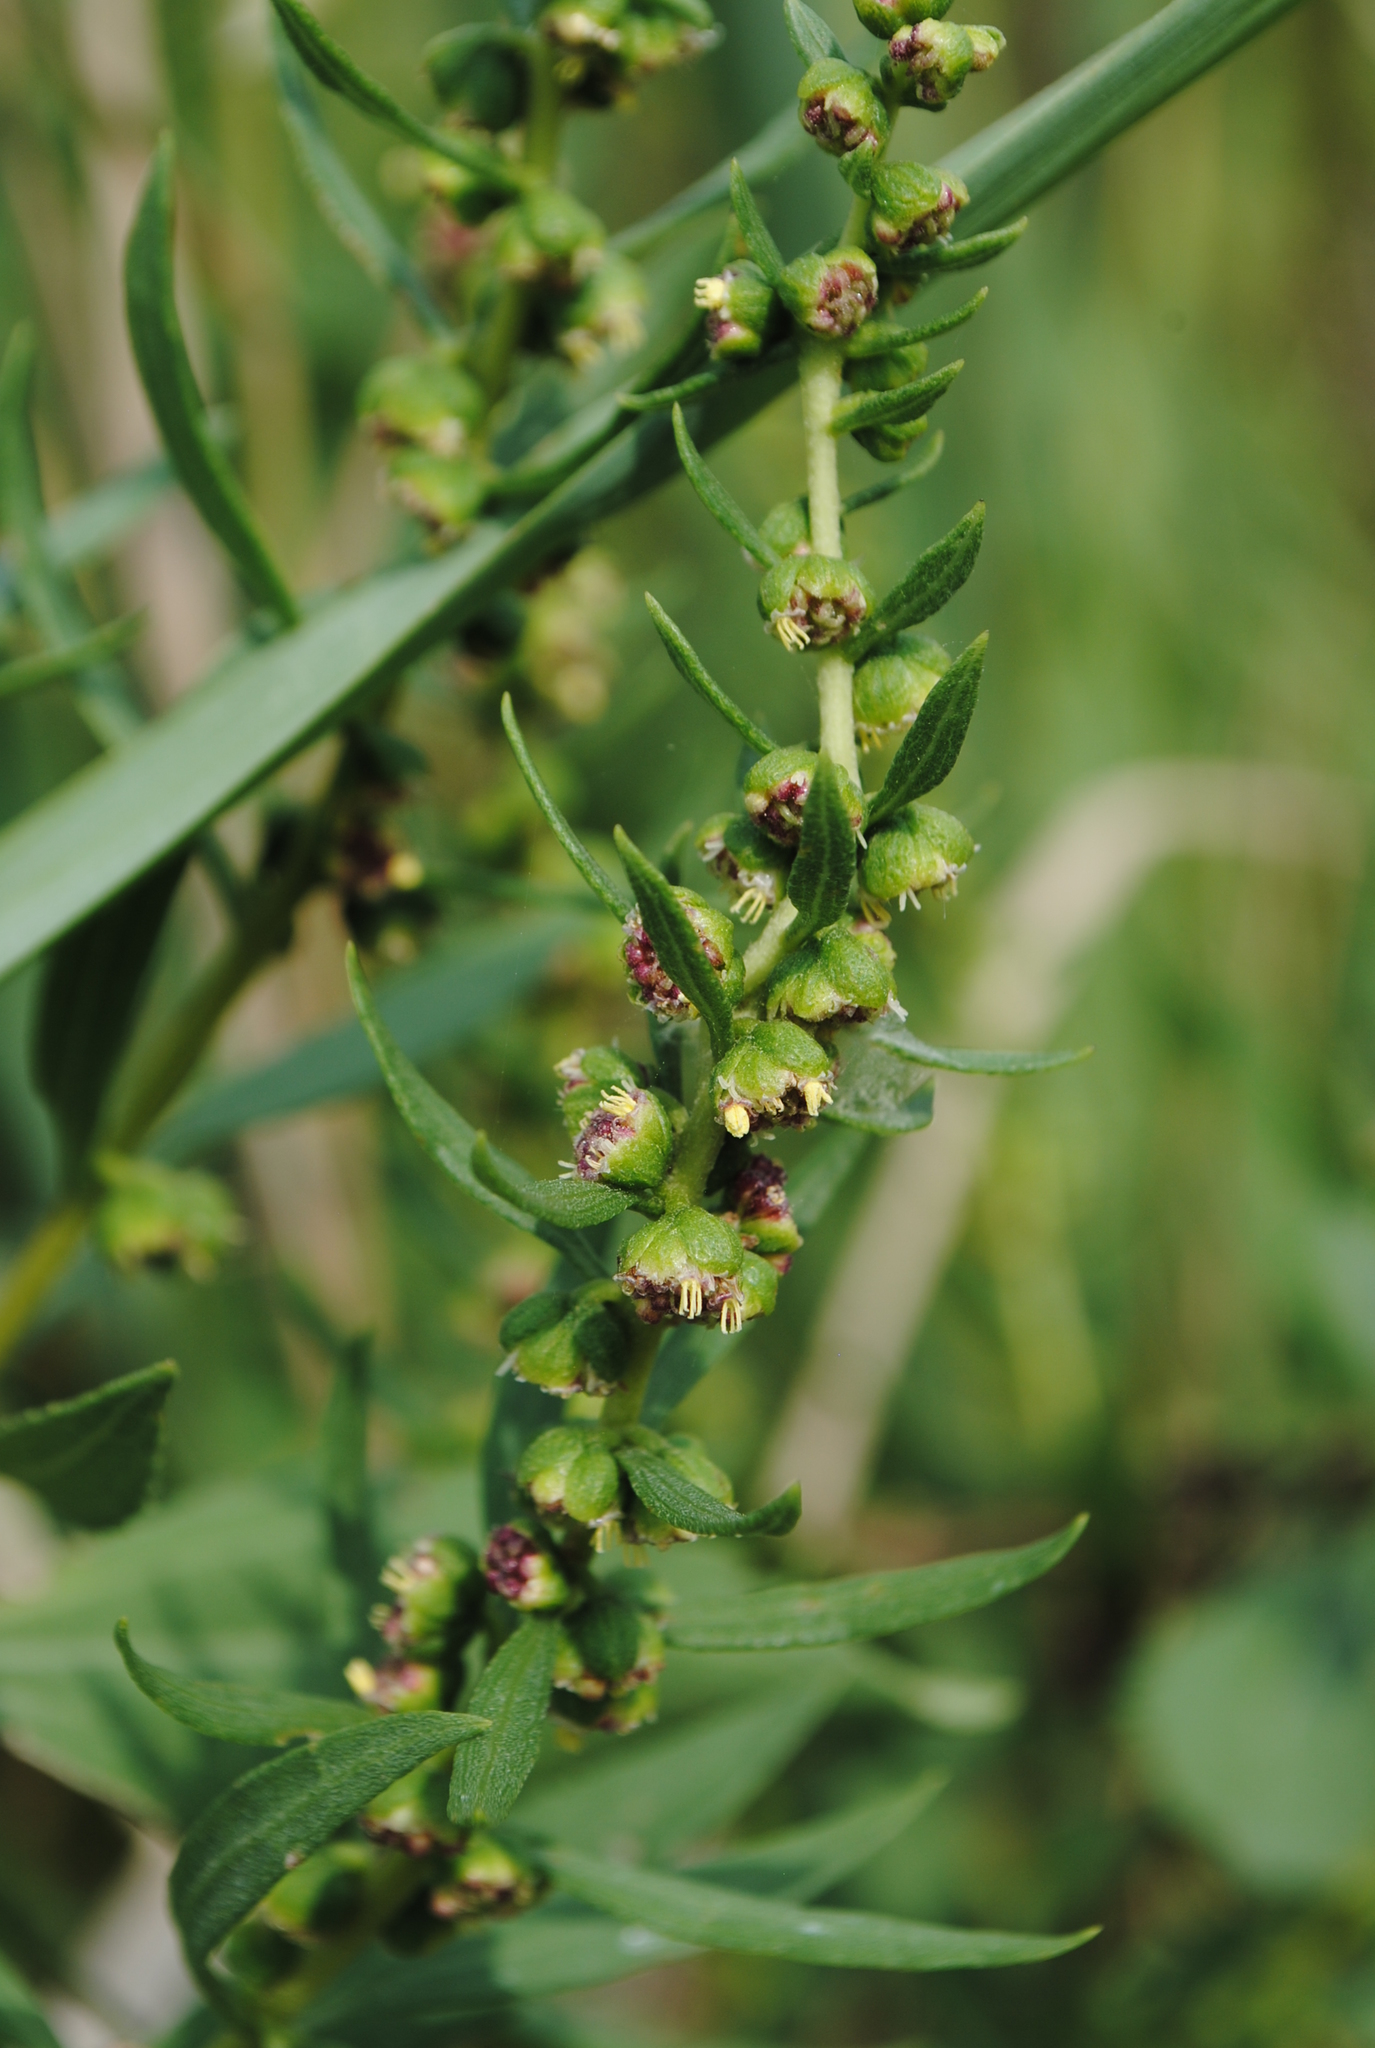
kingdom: Plantae
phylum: Tracheophyta
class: Magnoliopsida
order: Asterales
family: Asteraceae
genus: Iva
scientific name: Iva frutescens
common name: Big-leaved marsh-elder
